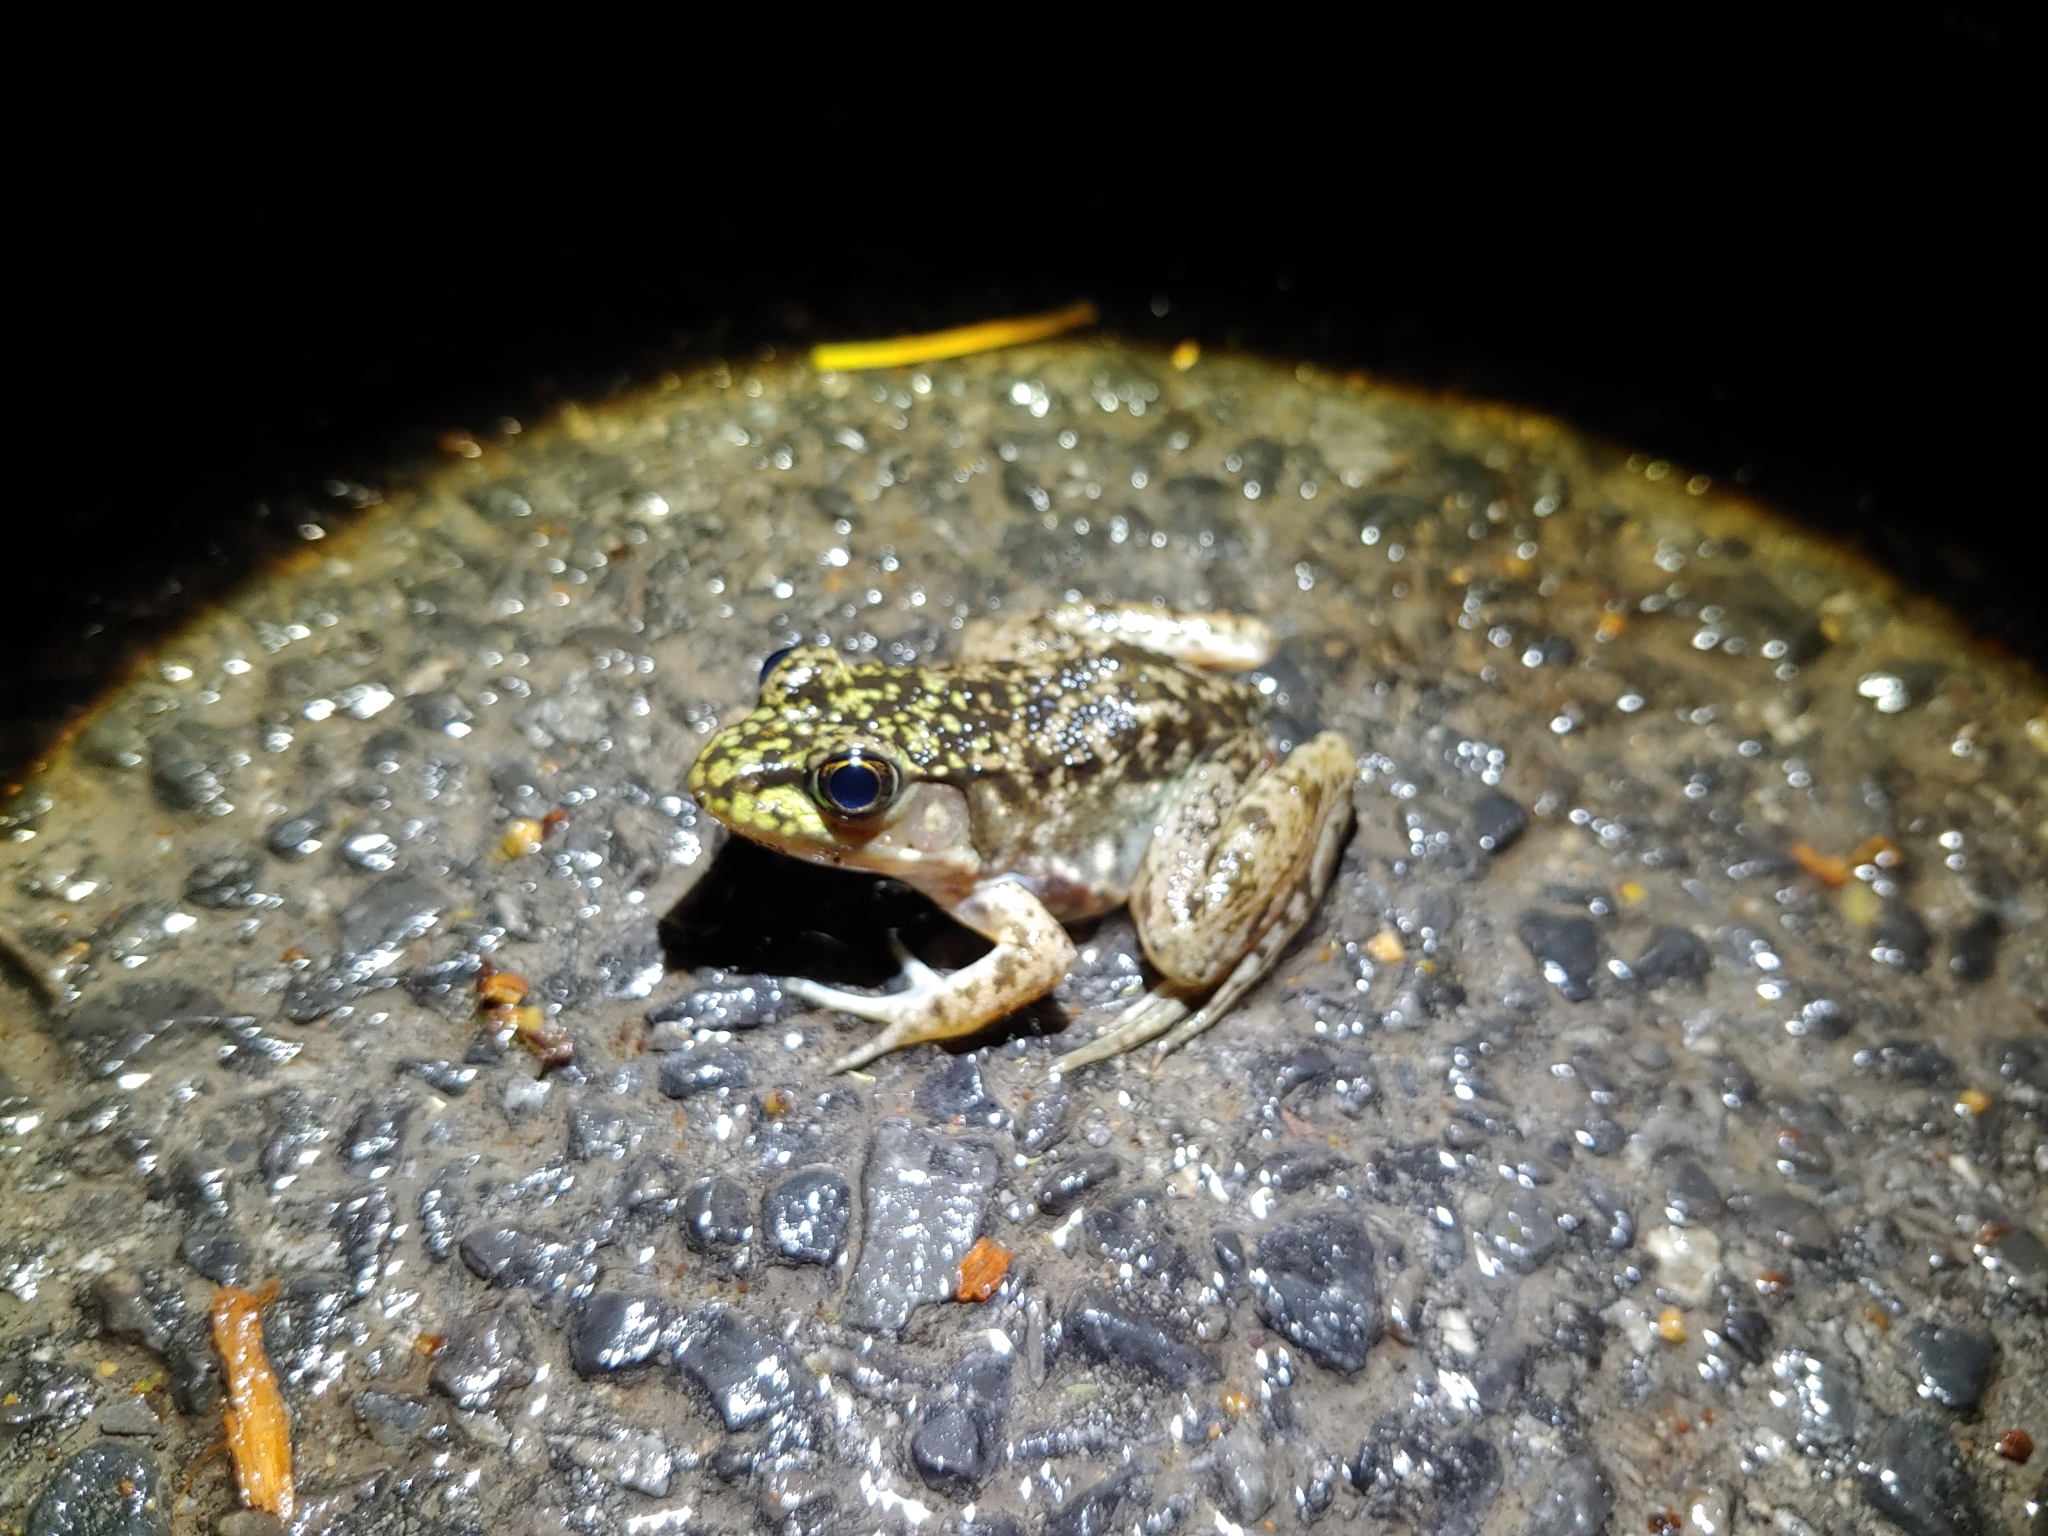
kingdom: Animalia
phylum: Chordata
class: Amphibia
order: Anura
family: Ranidae
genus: Lithobates
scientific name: Lithobates catesbeianus
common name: American bullfrog
